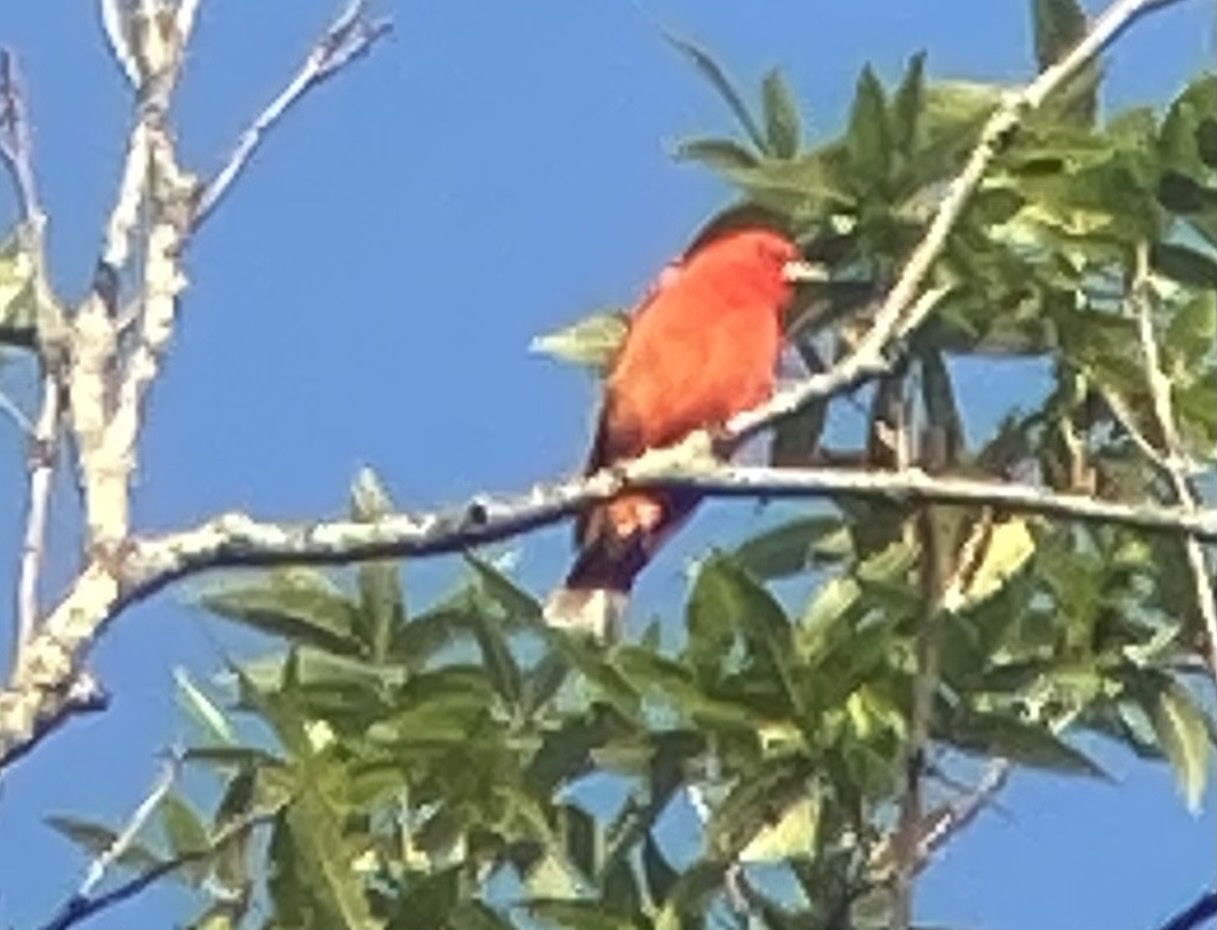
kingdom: Animalia
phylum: Chordata
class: Aves
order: Passeriformes
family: Cardinalidae
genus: Piranga
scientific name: Piranga olivacea
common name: Scarlet tanager
